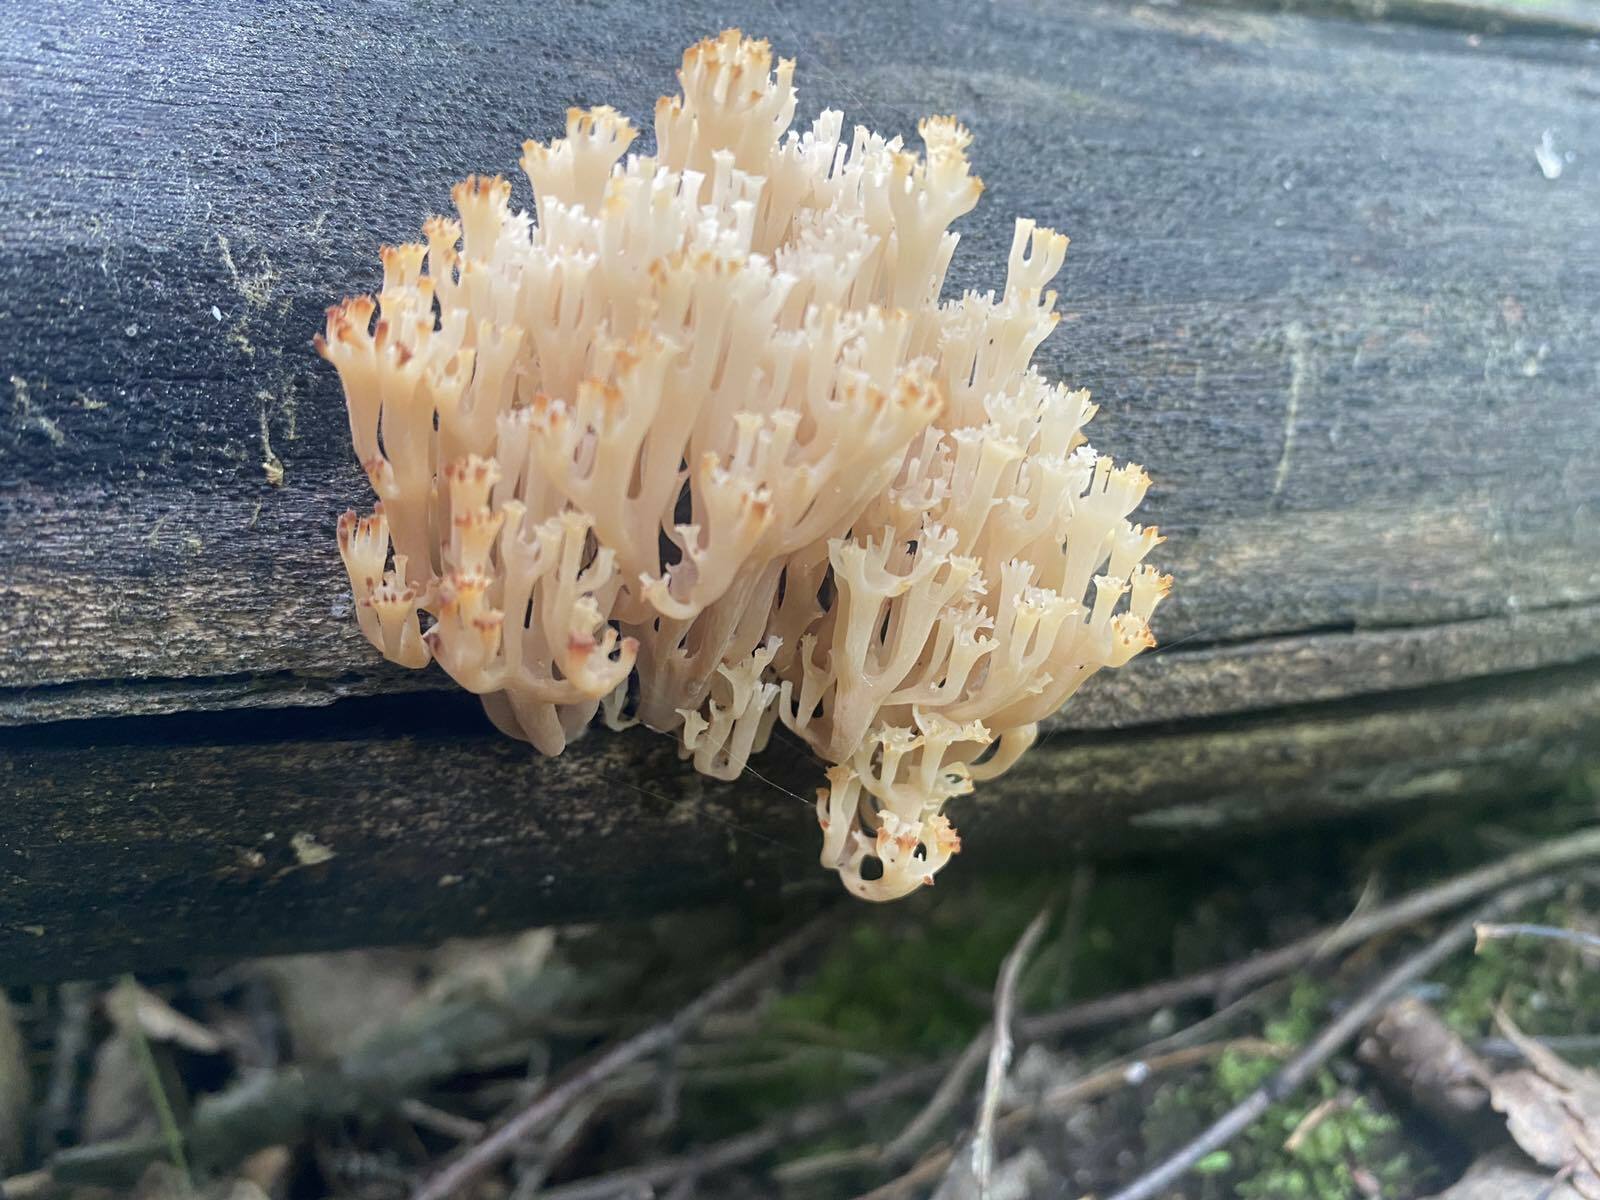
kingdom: Fungi
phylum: Basidiomycota
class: Agaricomycetes
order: Russulales
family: Auriscalpiaceae
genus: Artomyces
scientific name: Artomyces pyxidatus
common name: Crown-tipped coral fungus
